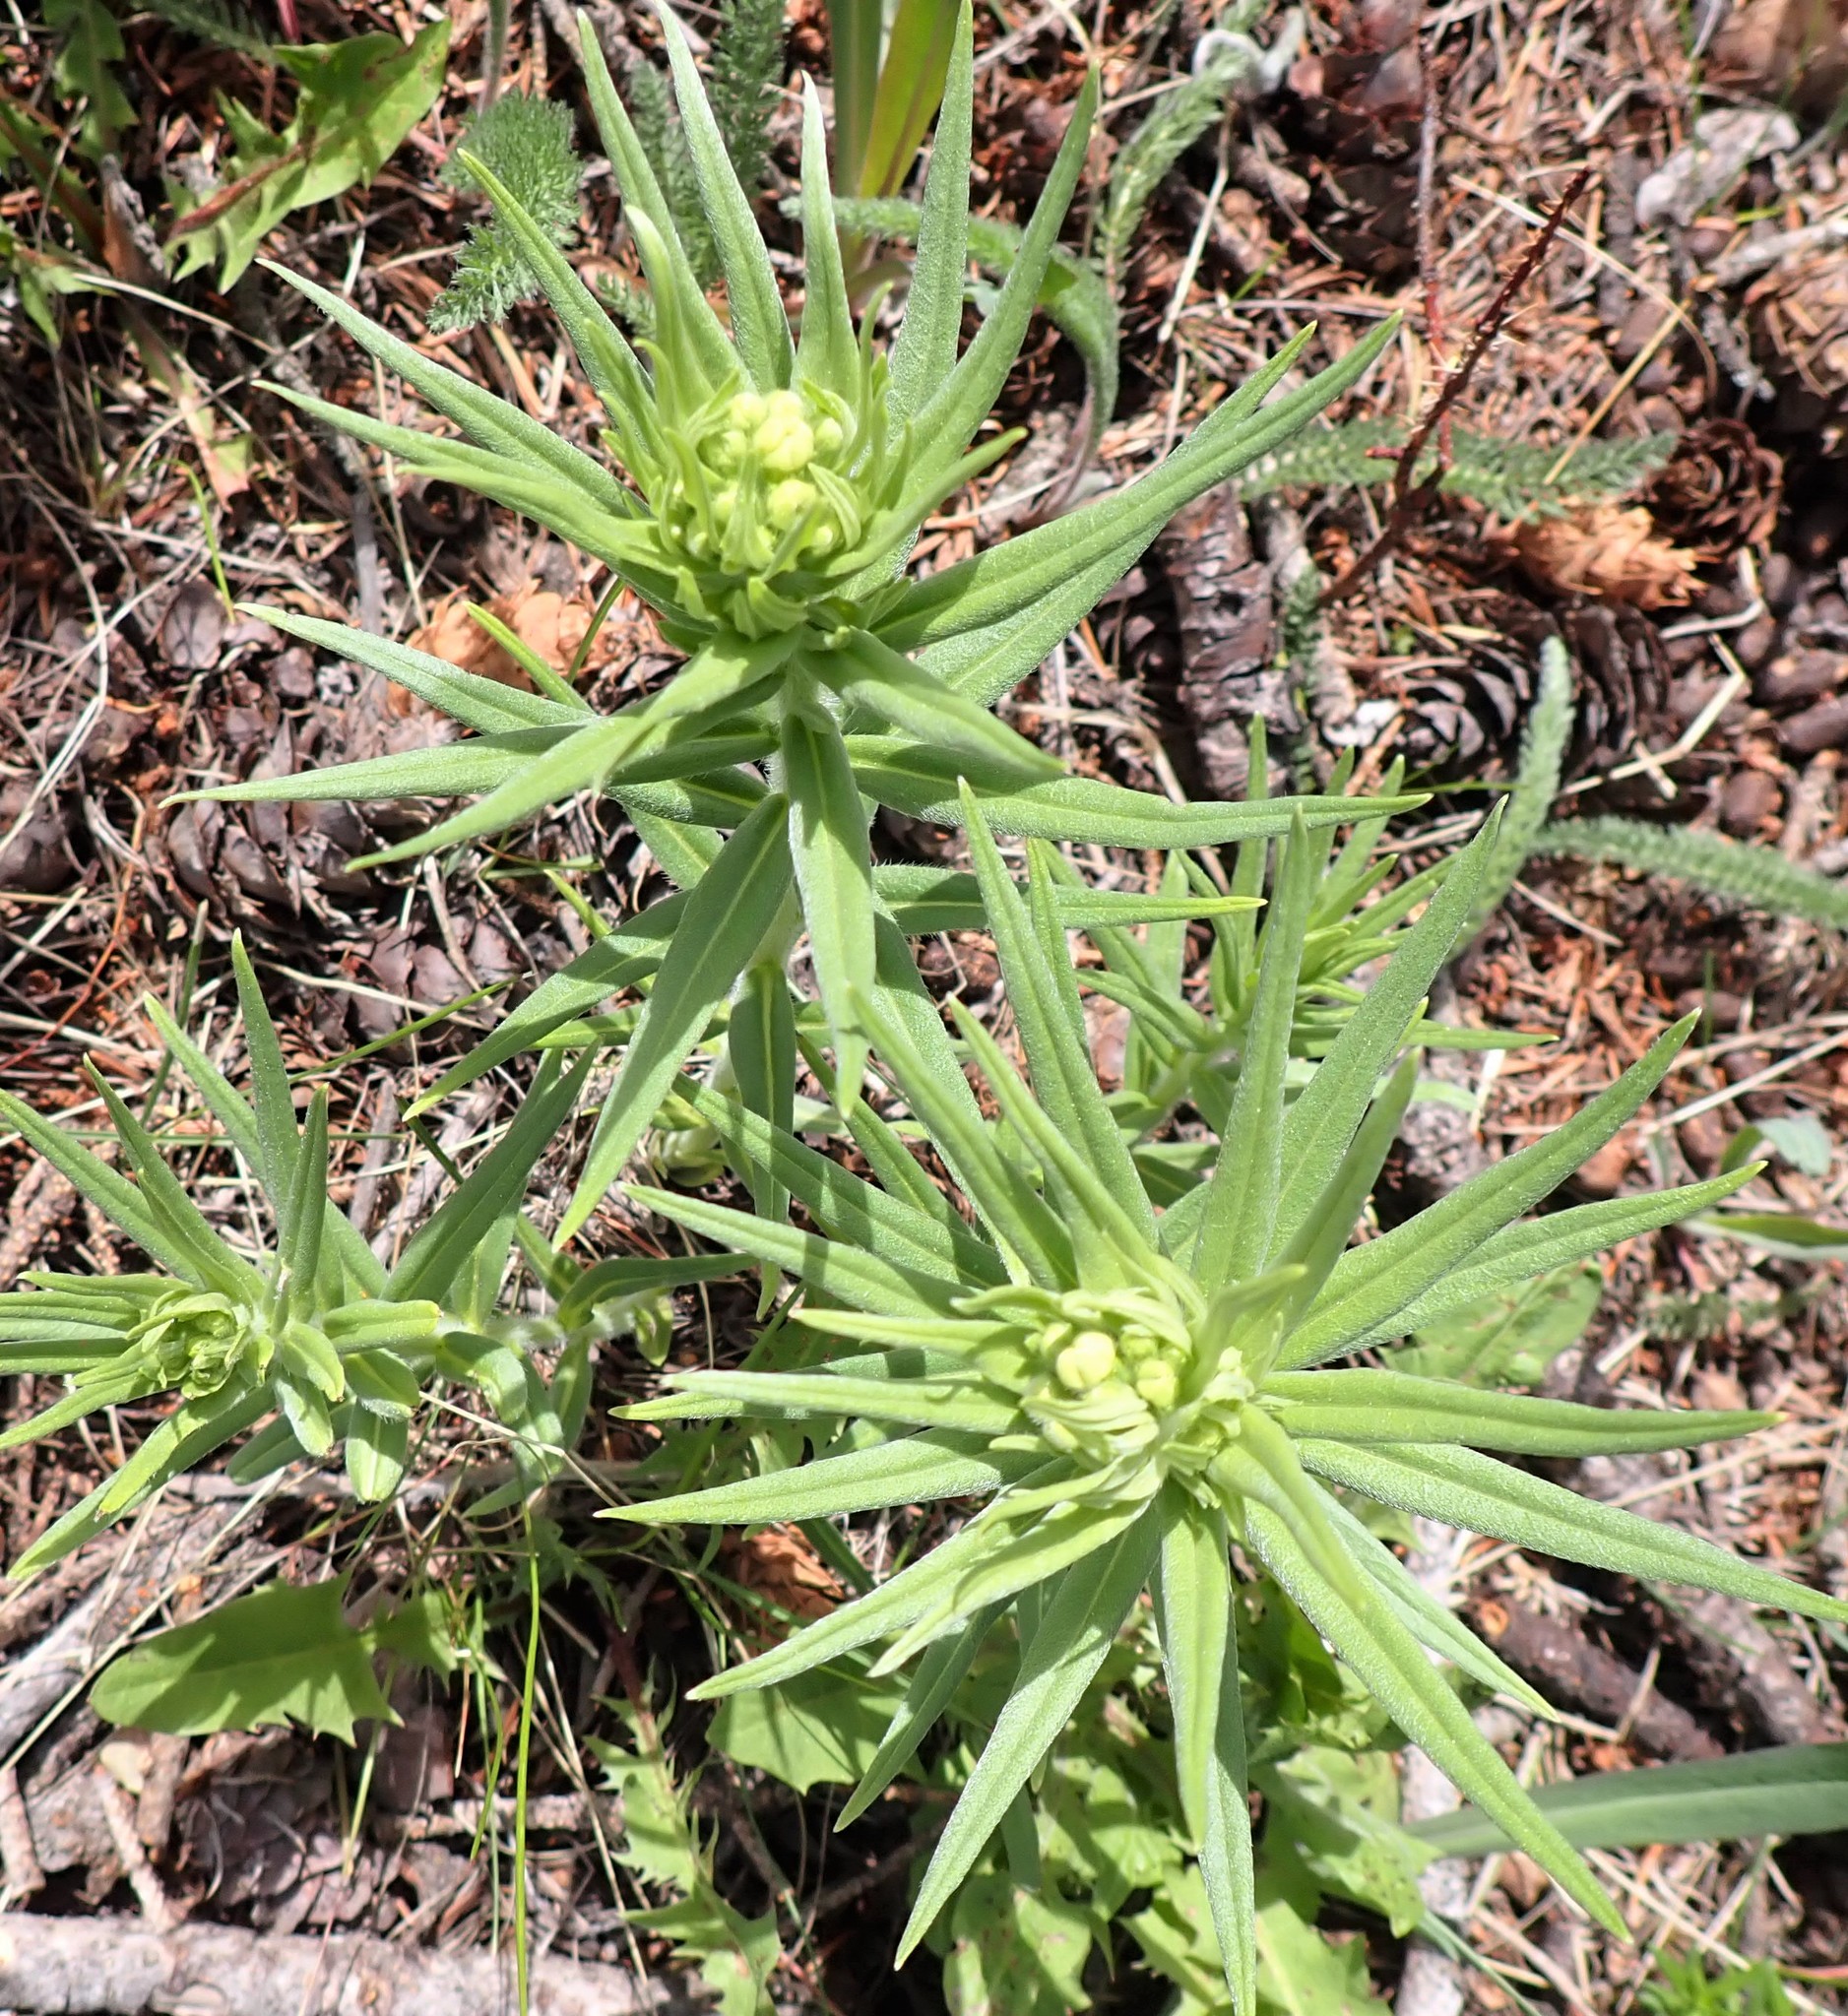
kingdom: Plantae
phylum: Tracheophyta
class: Magnoliopsida
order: Boraginales
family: Boraginaceae
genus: Lithospermum
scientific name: Lithospermum ruderale
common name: Western gromwell
